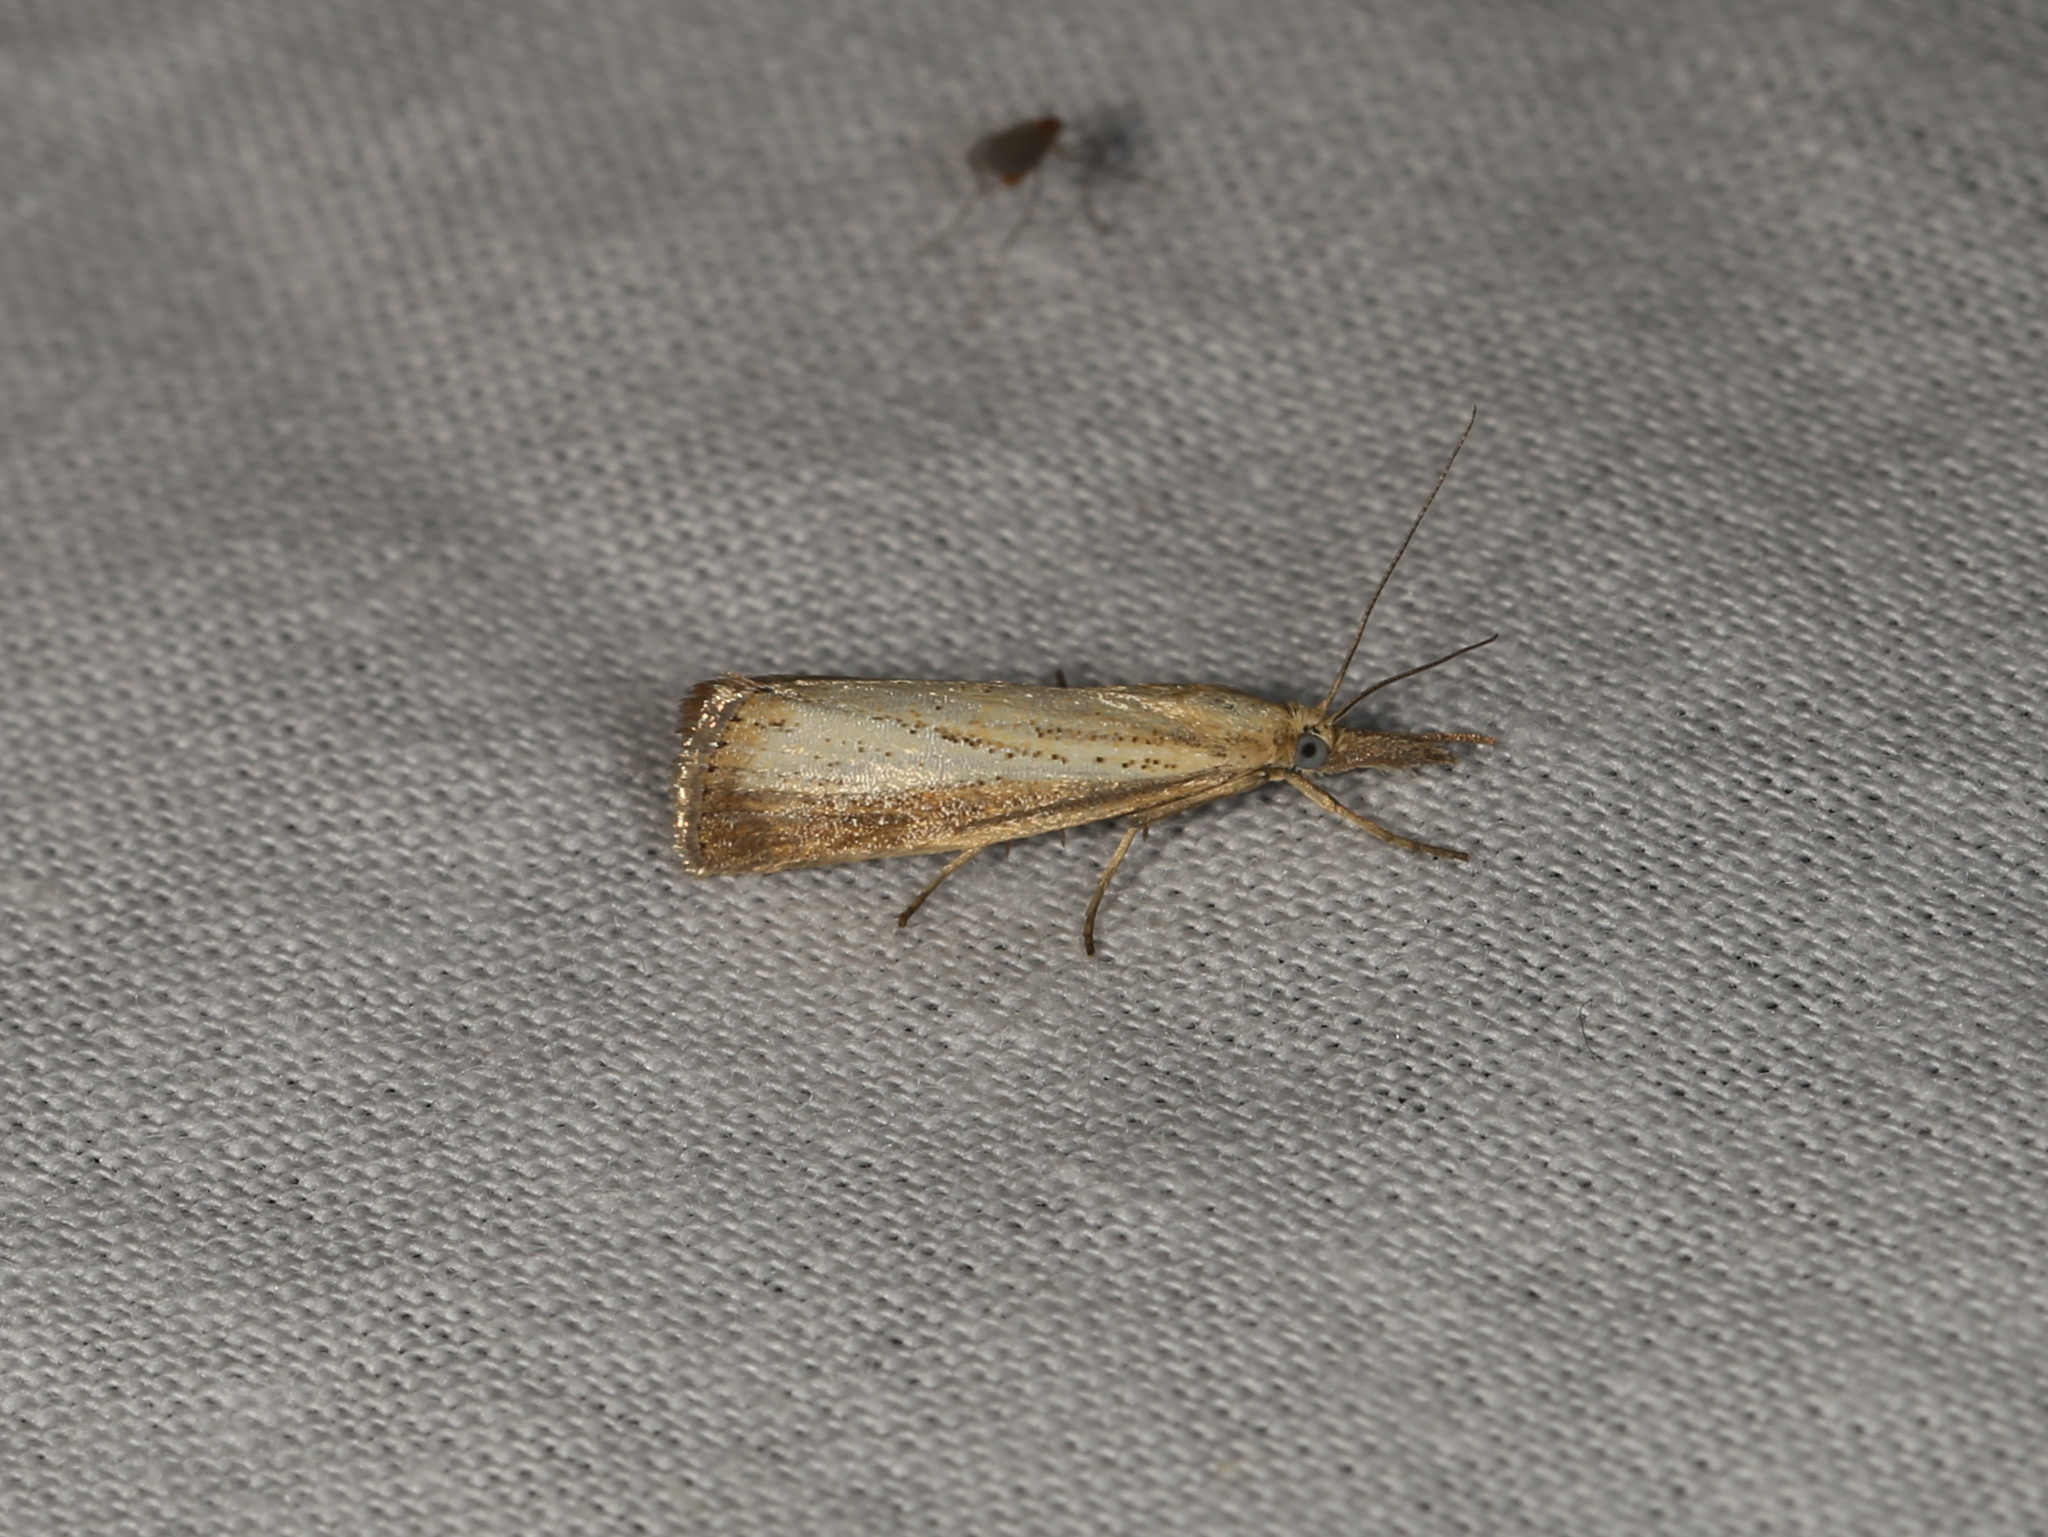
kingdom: Animalia
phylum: Arthropoda
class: Insecta
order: Lepidoptera
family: Crambidae
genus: Agriphila
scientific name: Agriphila straminella
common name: Straw grass-veneer
